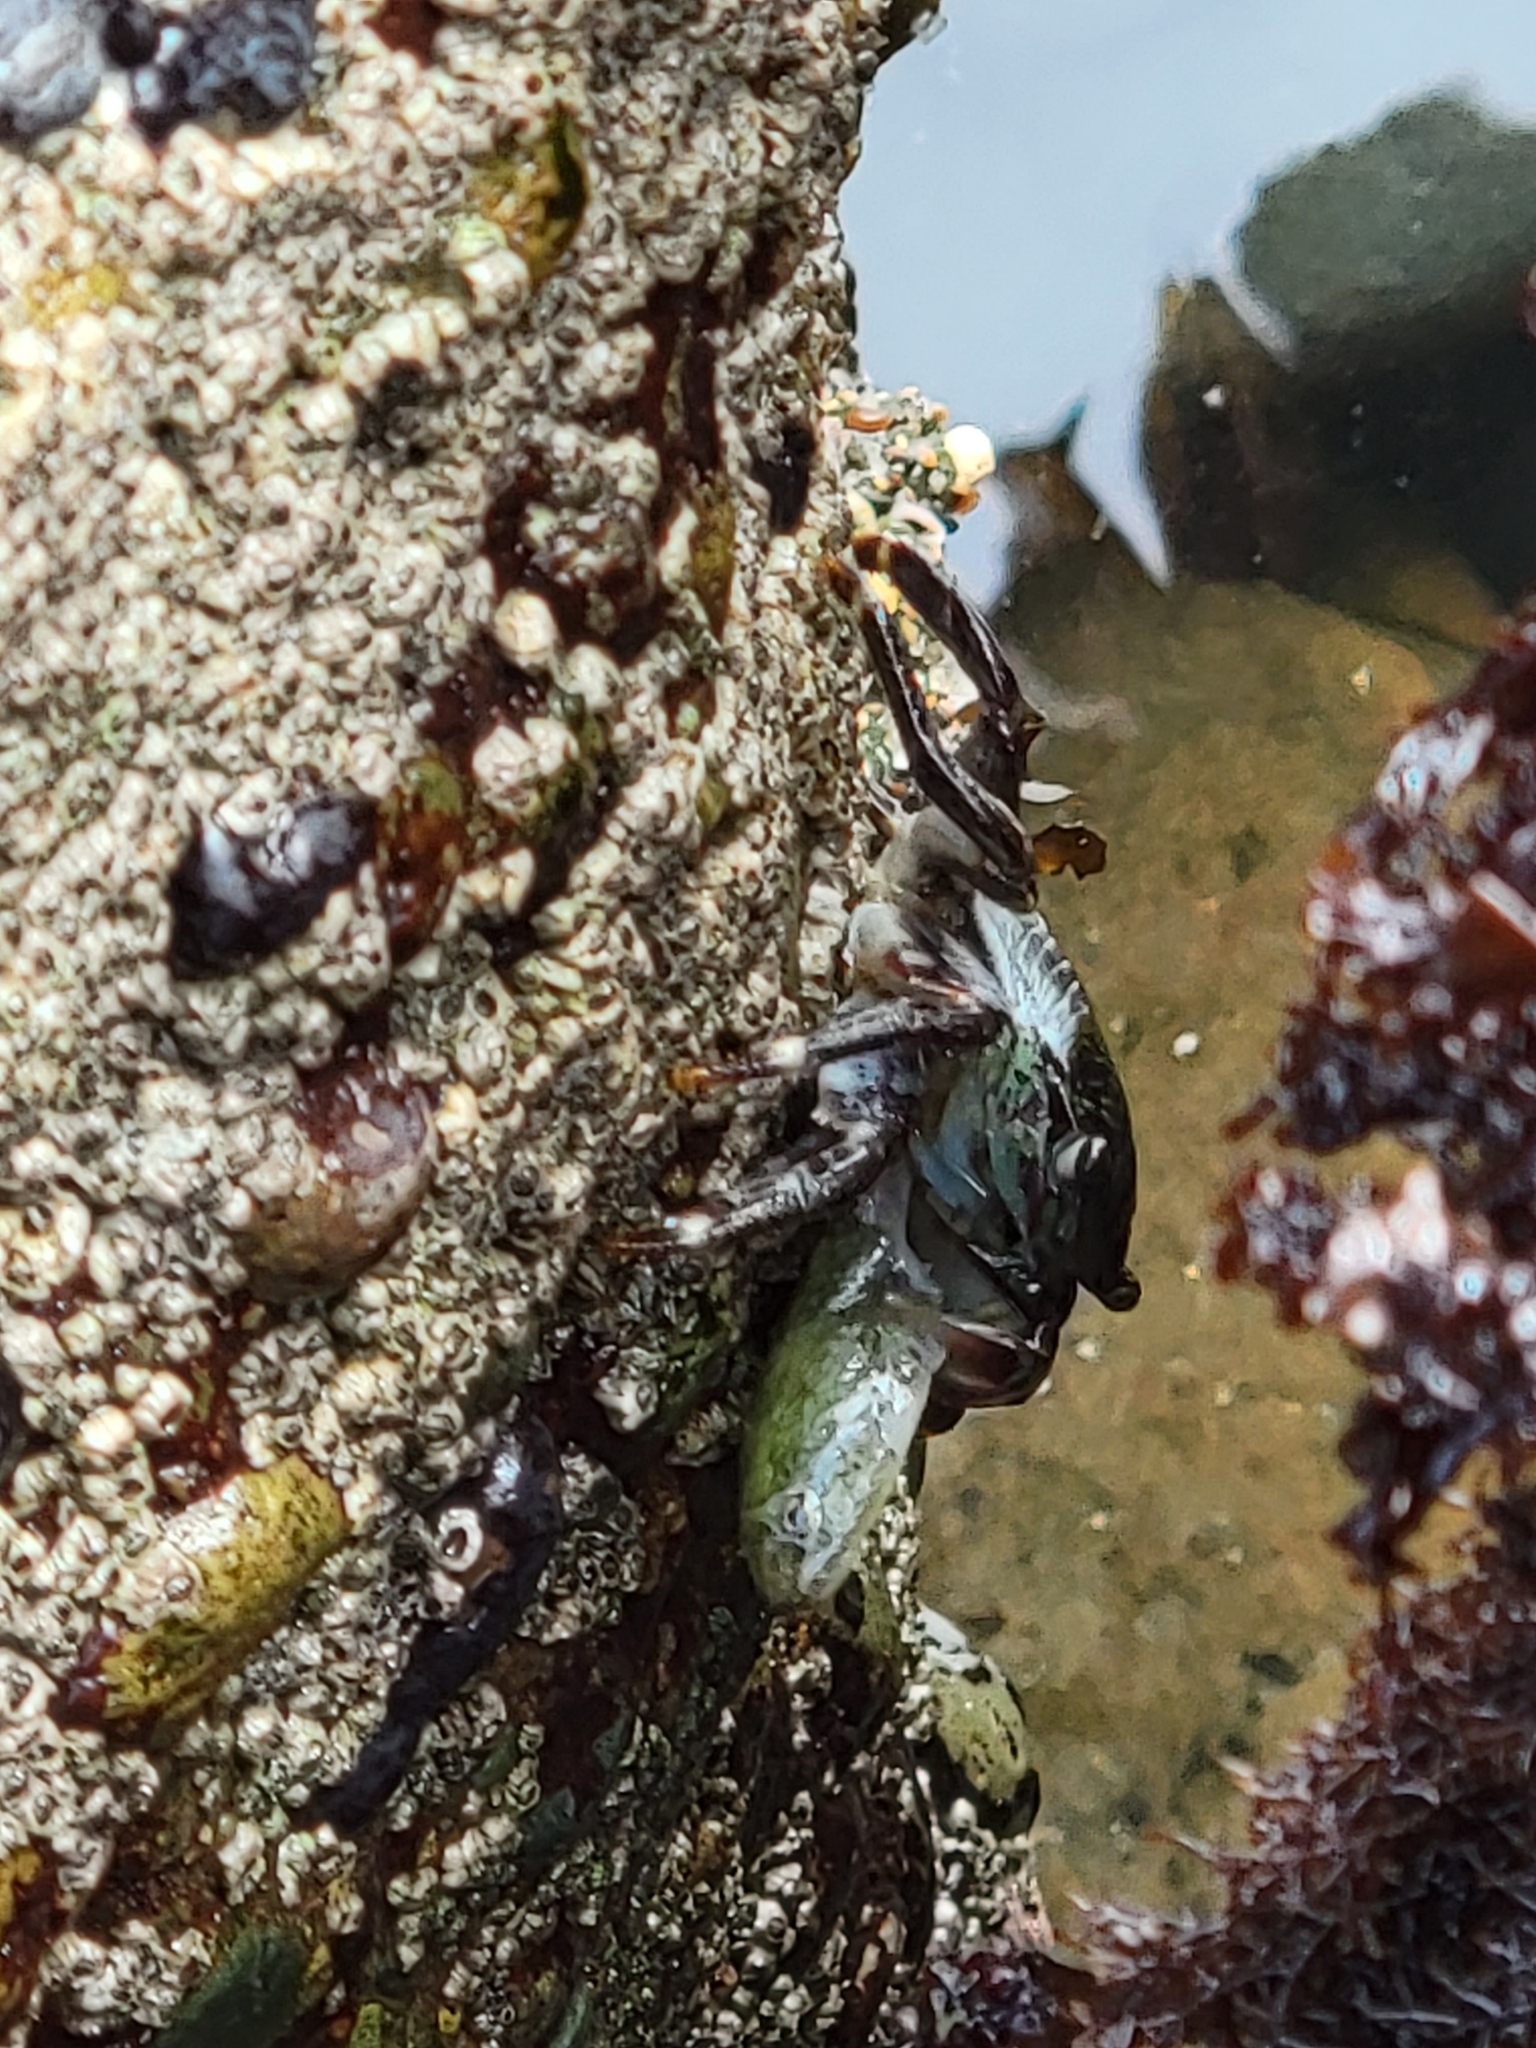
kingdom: Animalia
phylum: Arthropoda
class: Malacostraca
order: Decapoda
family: Grapsidae
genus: Pachygrapsus
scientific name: Pachygrapsus crassipes
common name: Striped shore crab
